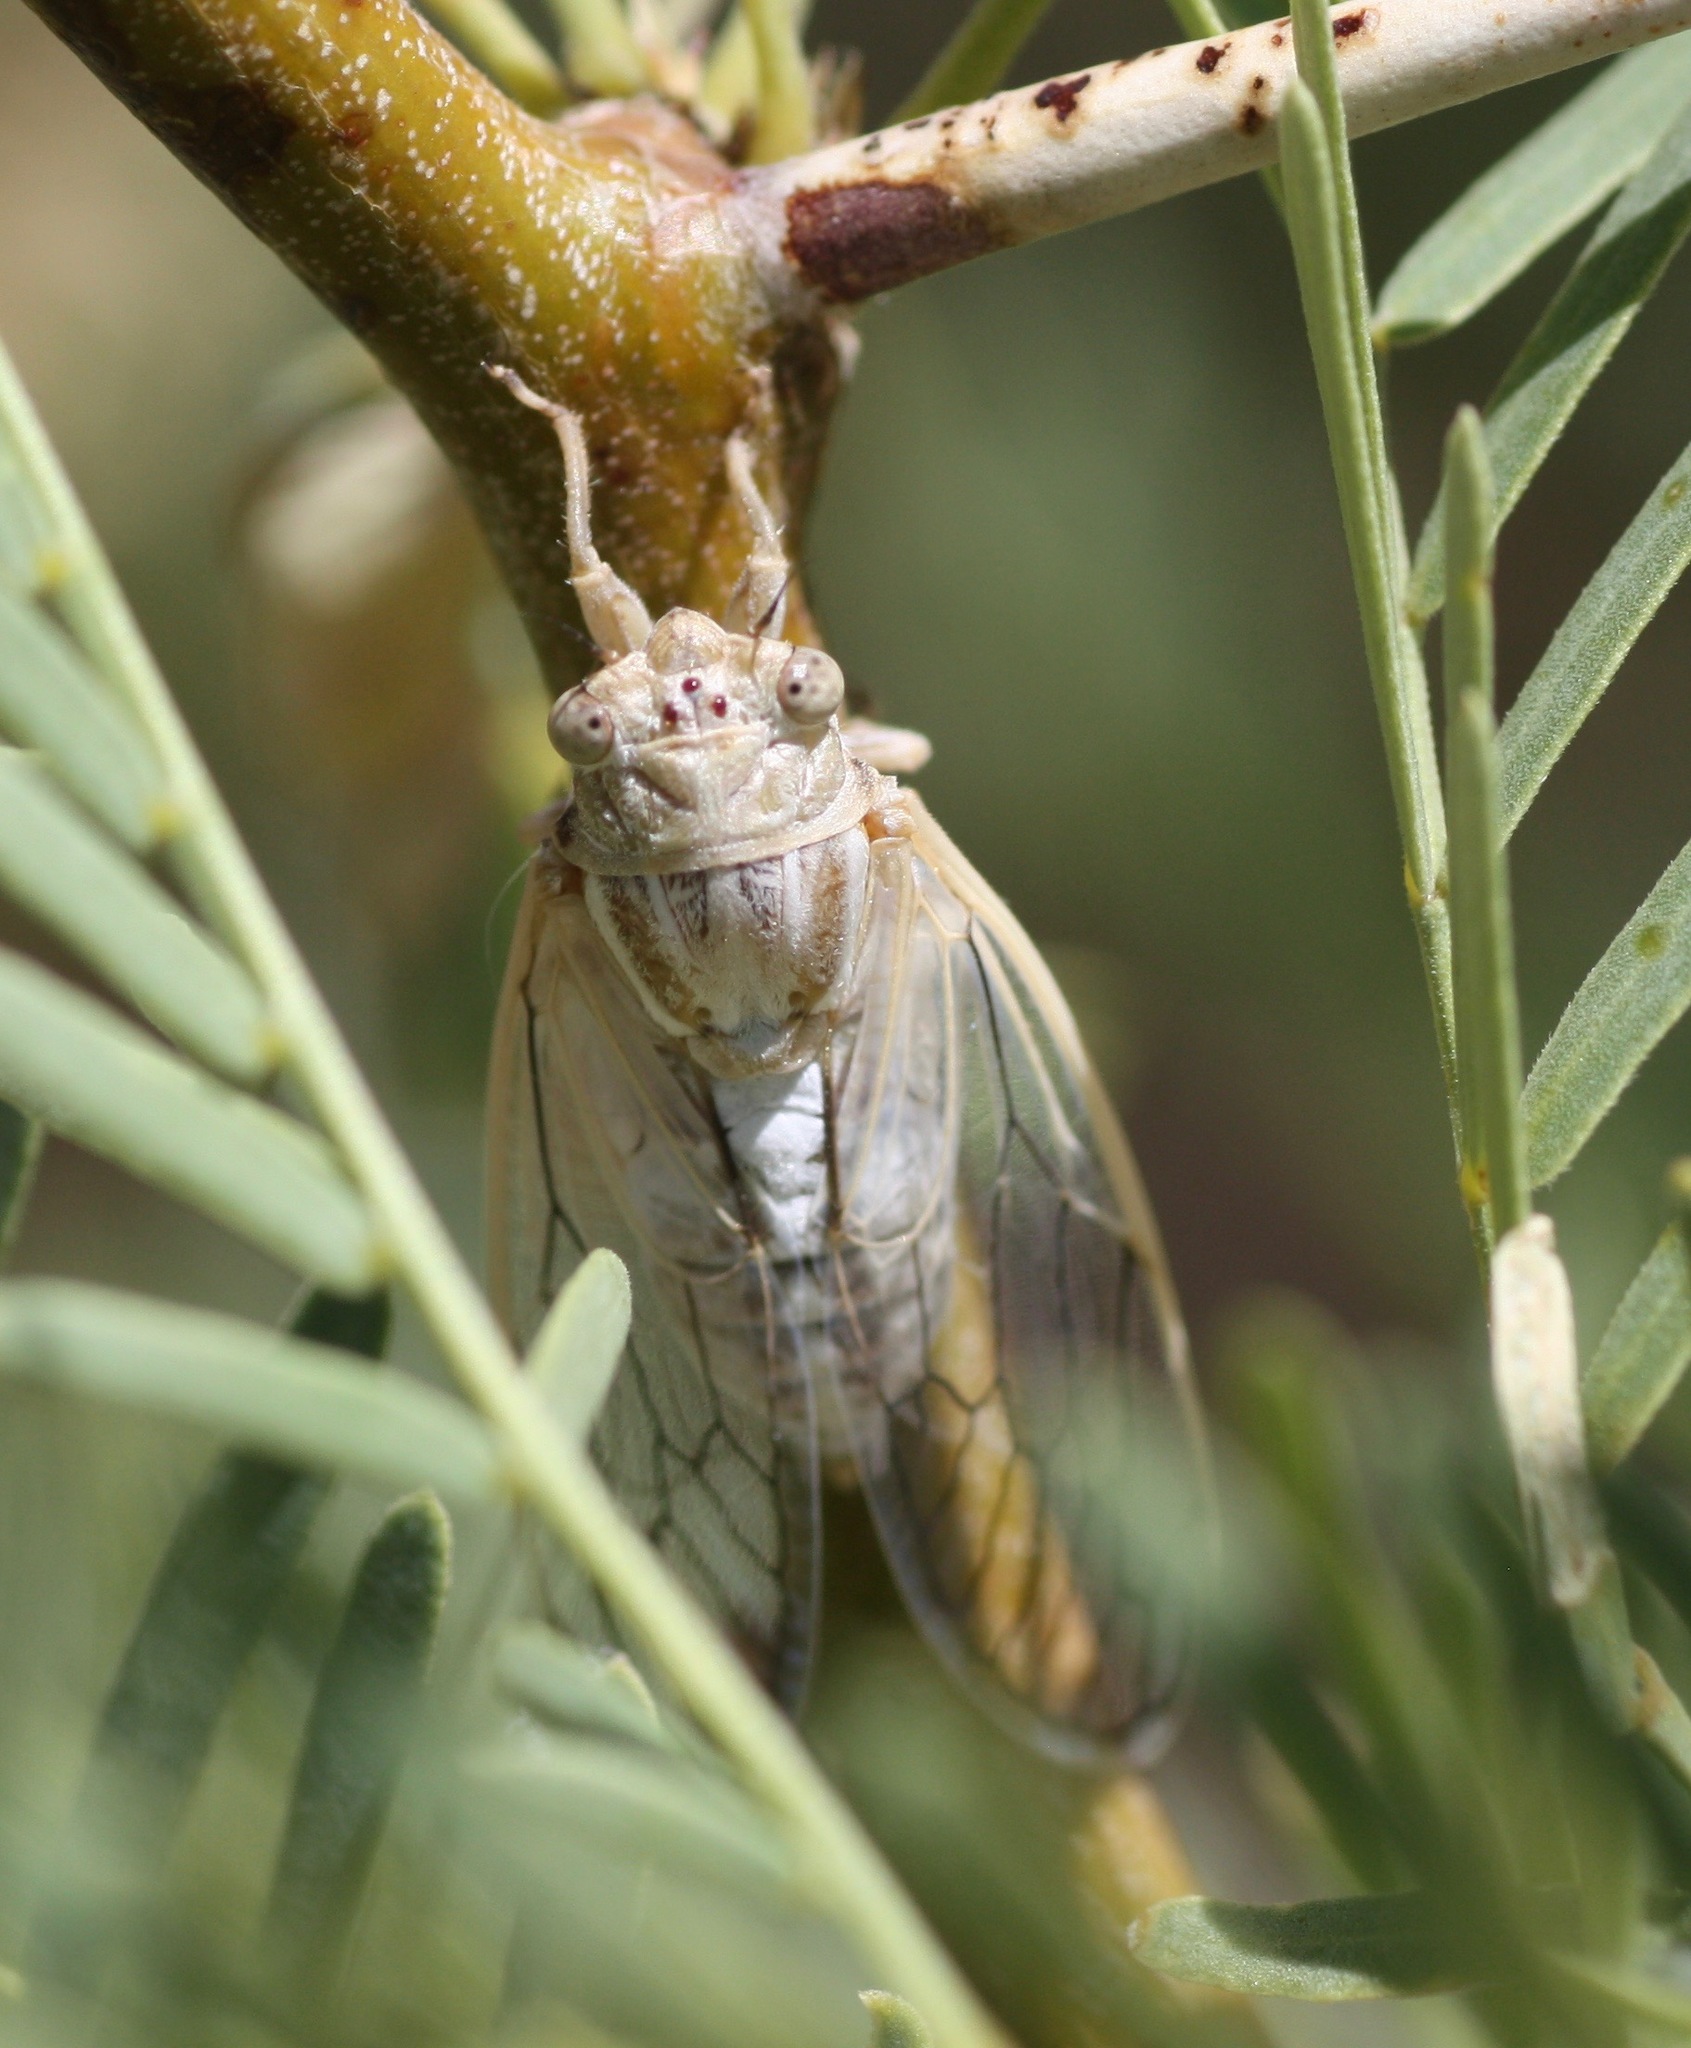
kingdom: Animalia
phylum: Arthropoda
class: Insecta
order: Hemiptera
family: Cicadidae
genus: Beameria
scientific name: Beameria wheeleri
